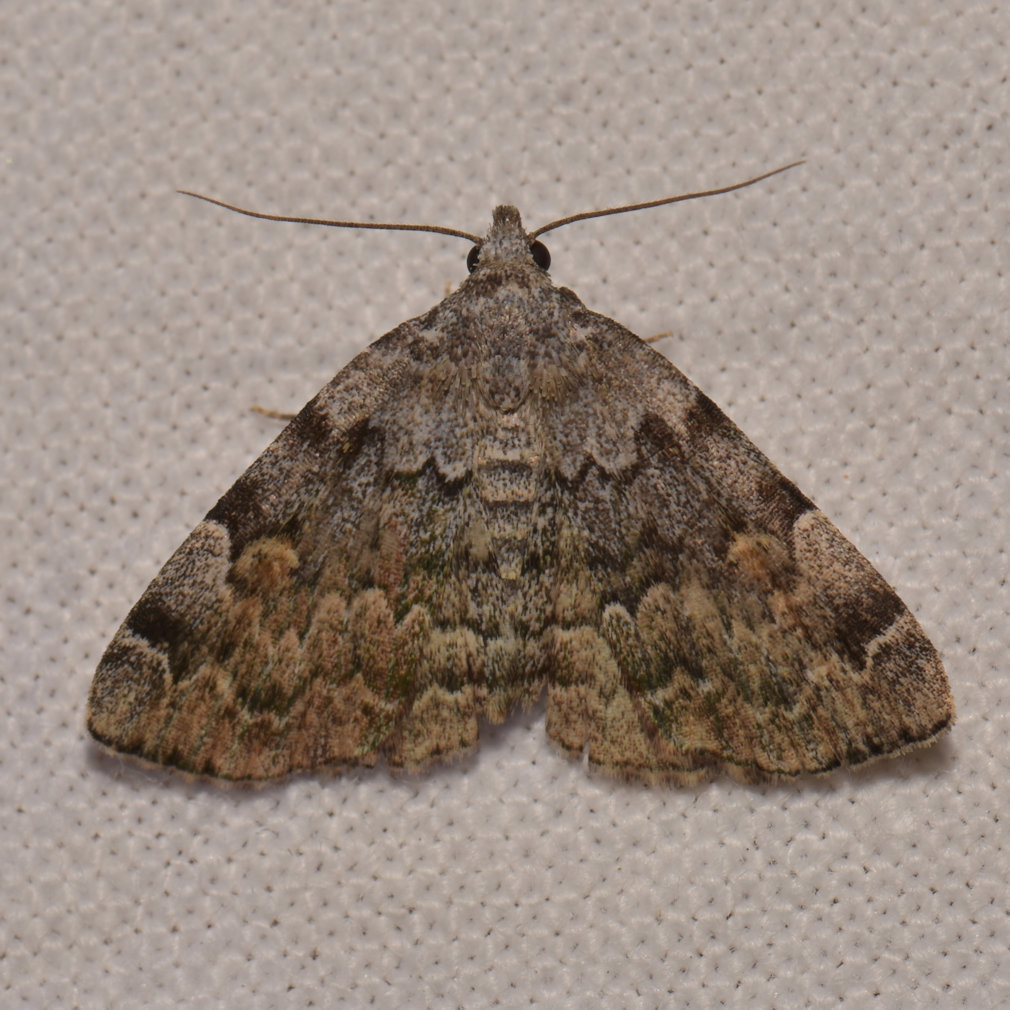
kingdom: Animalia
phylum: Arthropoda
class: Insecta
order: Lepidoptera
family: Erebidae
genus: Idia
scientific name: Idia americalis
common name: American idia moth
